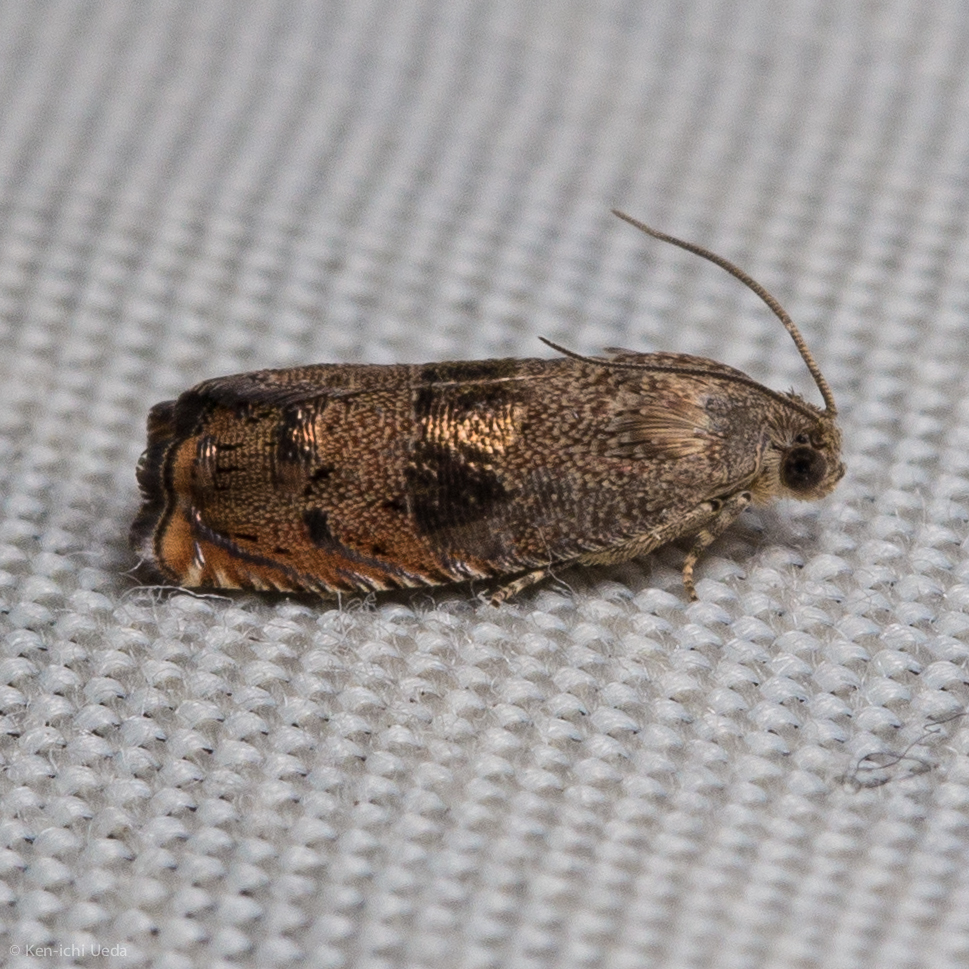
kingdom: Animalia
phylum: Arthropoda
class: Insecta
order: Lepidoptera
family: Tortricidae
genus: Cydia
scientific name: Cydia latiferreana
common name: Filbertworm moth
